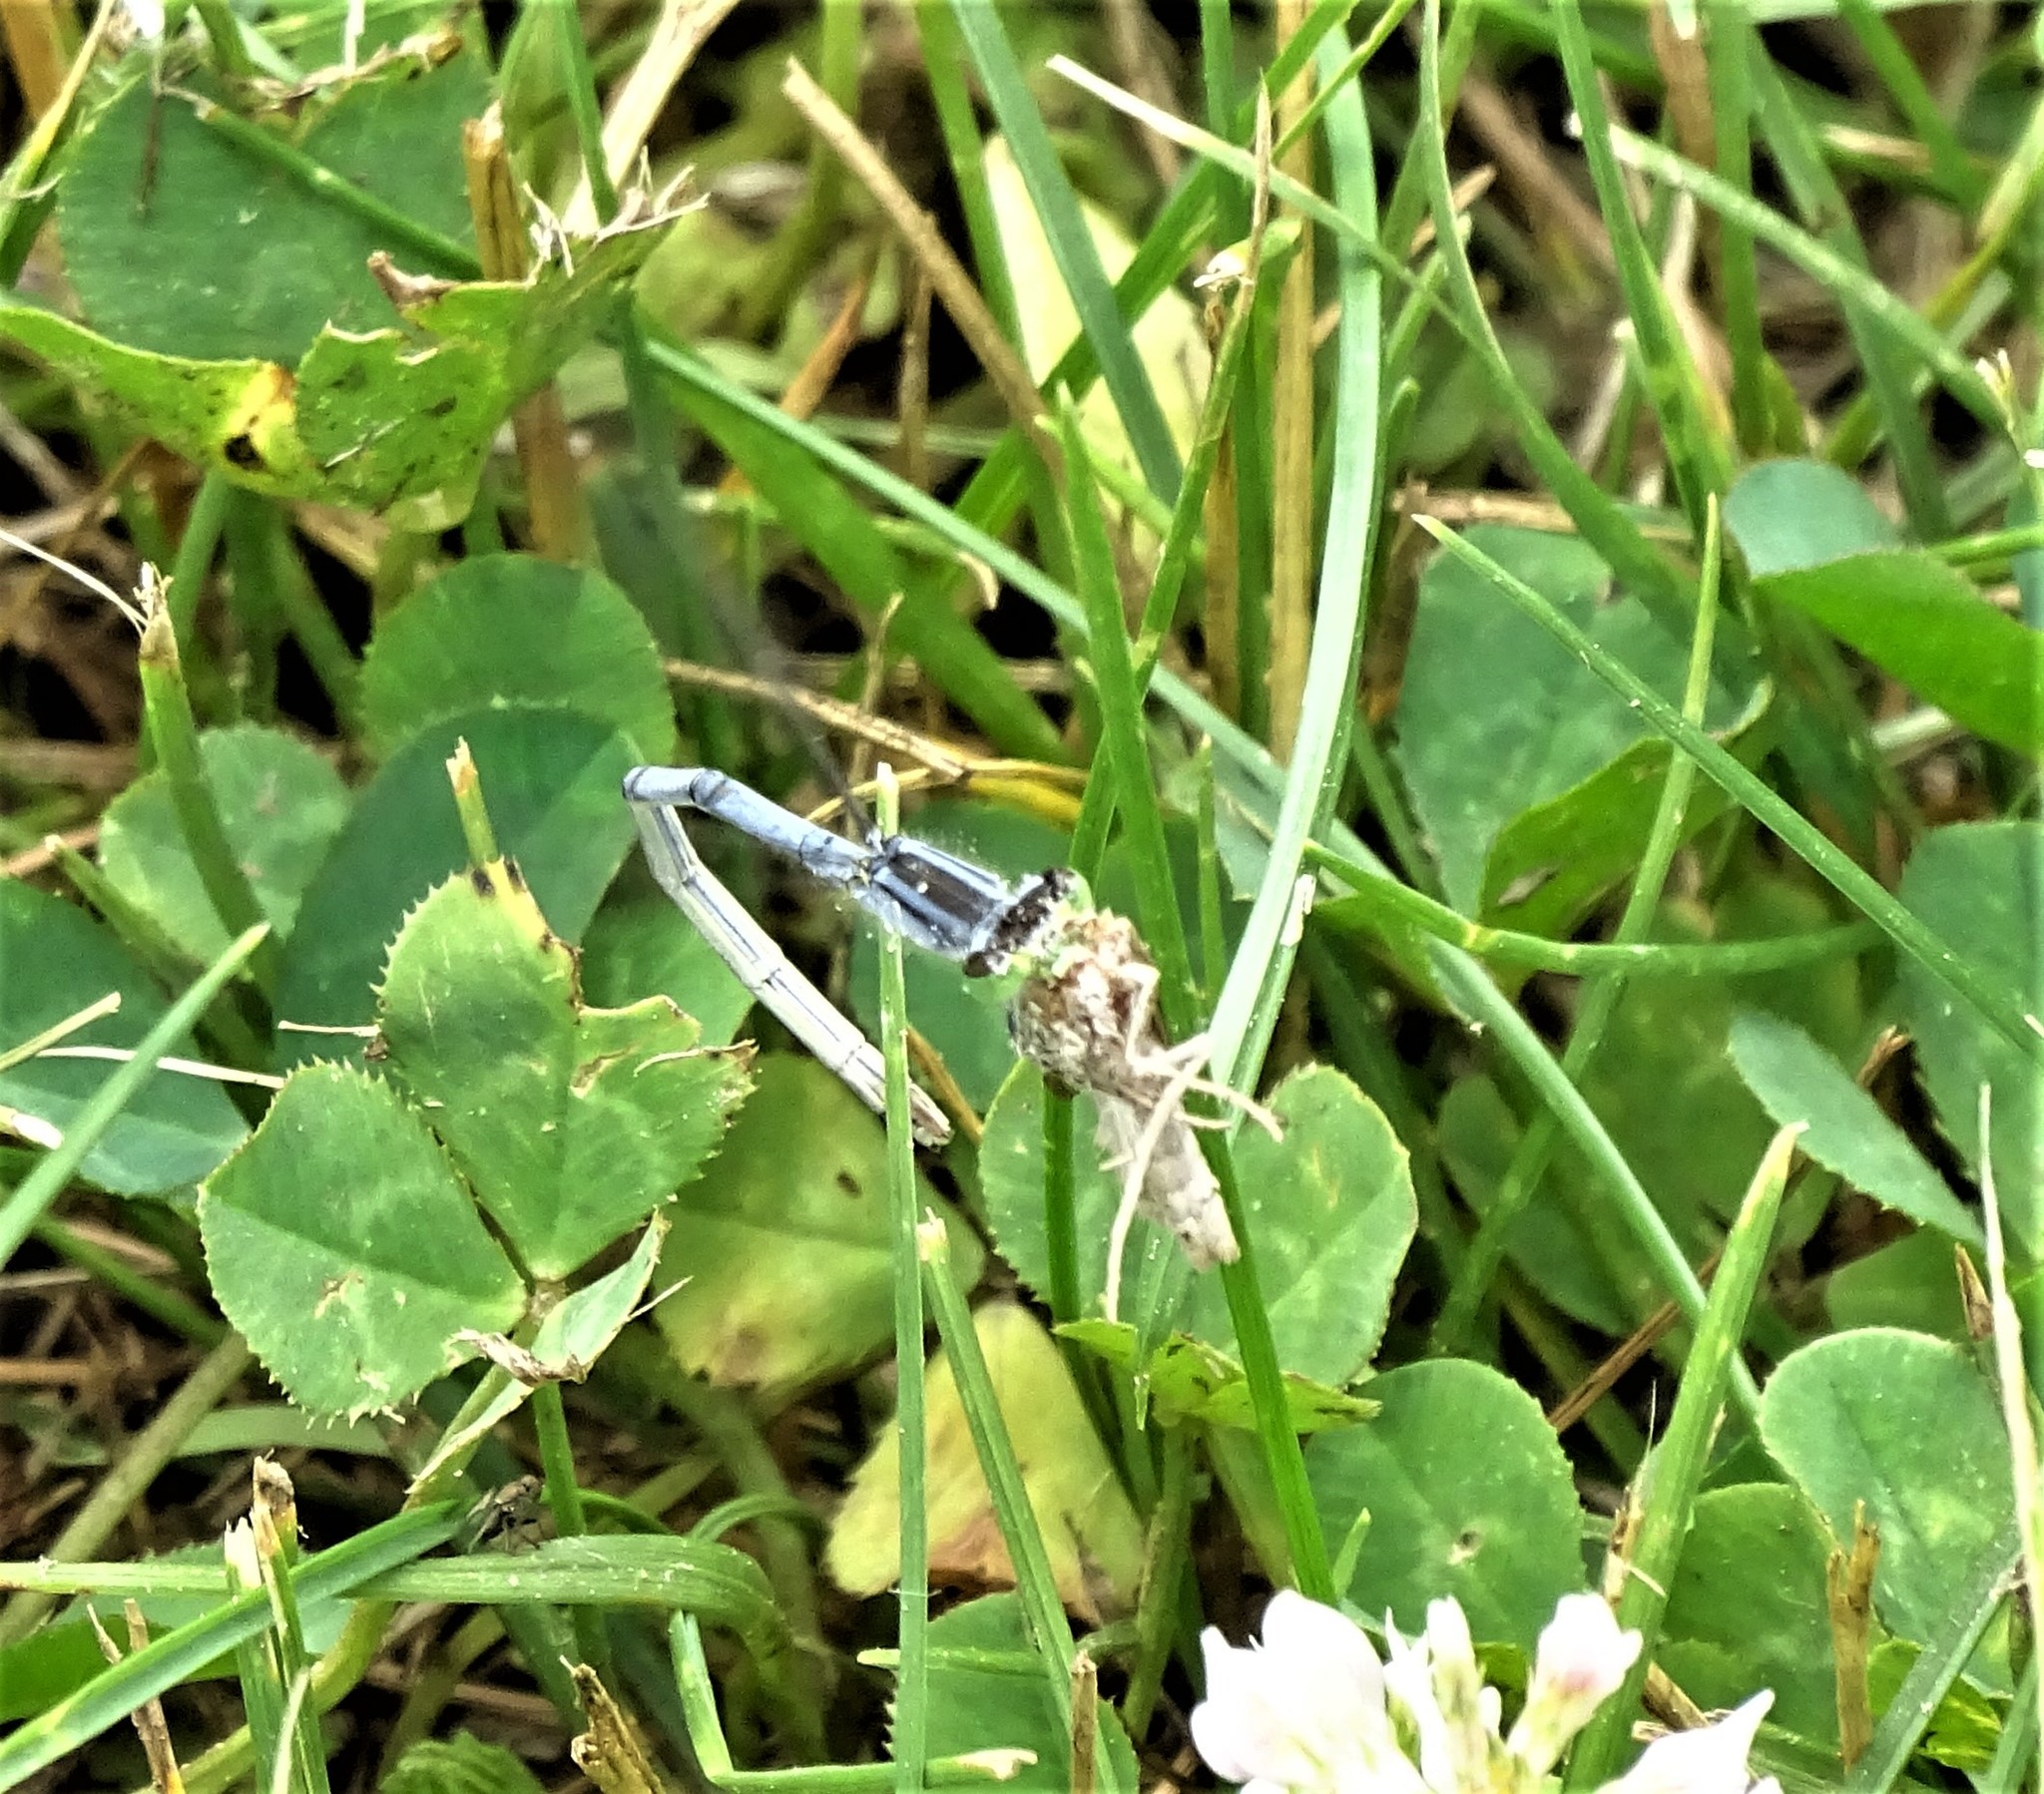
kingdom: Animalia
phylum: Arthropoda
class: Insecta
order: Odonata
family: Coenagrionidae
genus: Ischnura
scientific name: Ischnura verticalis
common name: Eastern forktail
